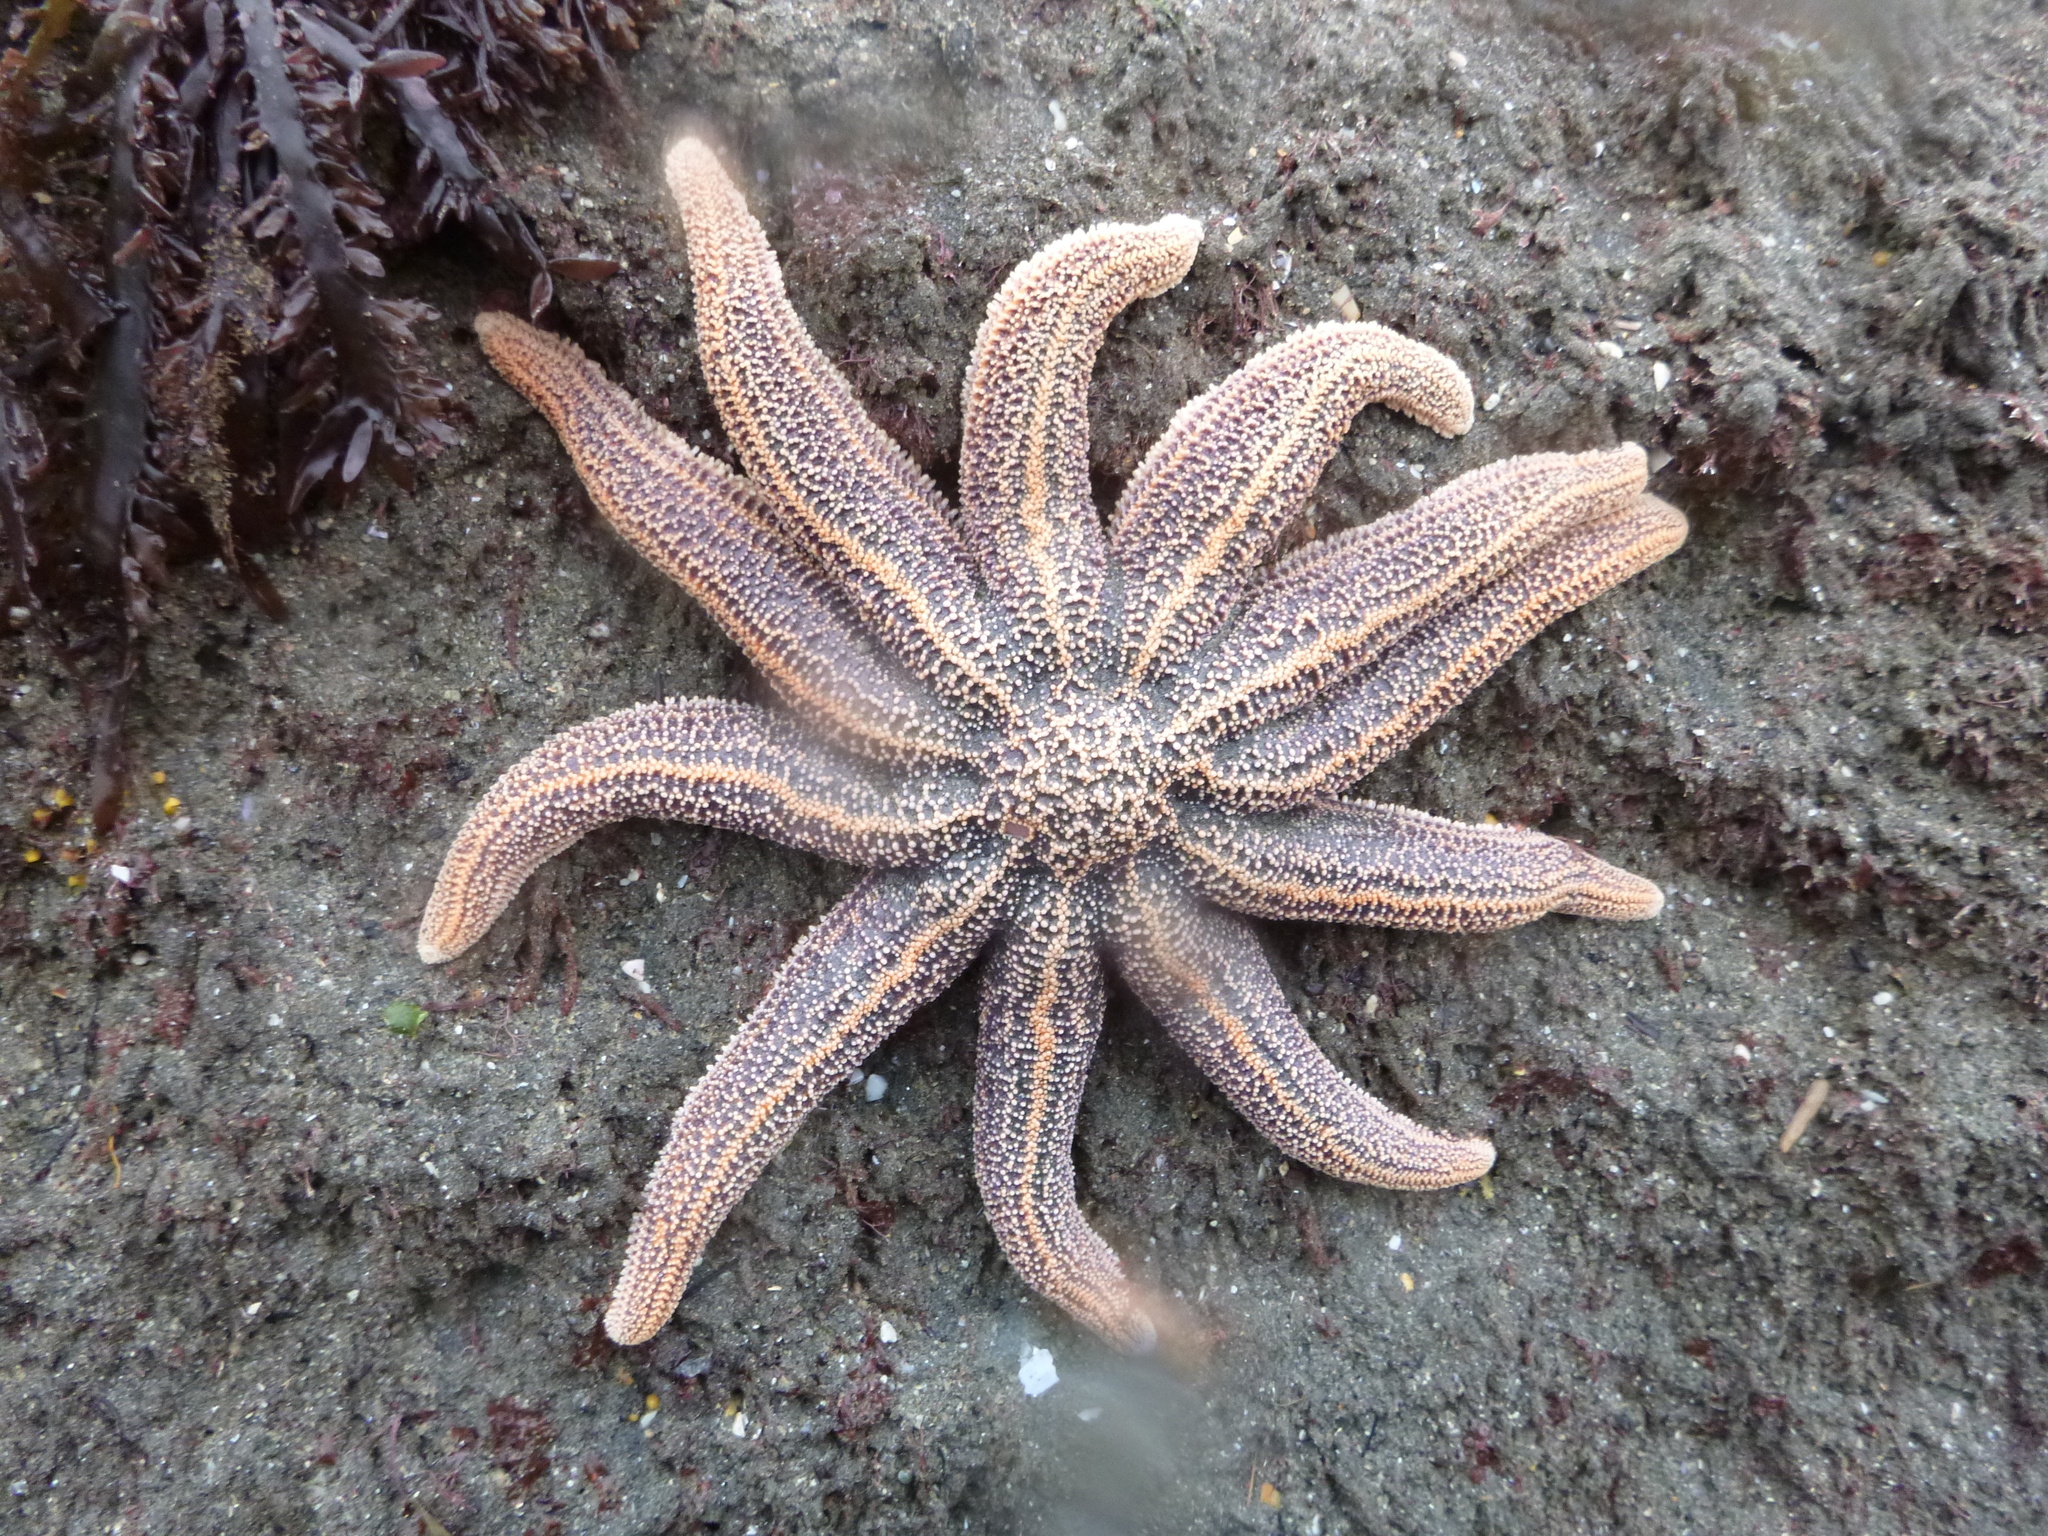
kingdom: Animalia
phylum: Echinodermata
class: Asteroidea
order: Forcipulatida
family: Stichasteridae
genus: Stichaster
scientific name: Stichaster australis
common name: Reef starfish
